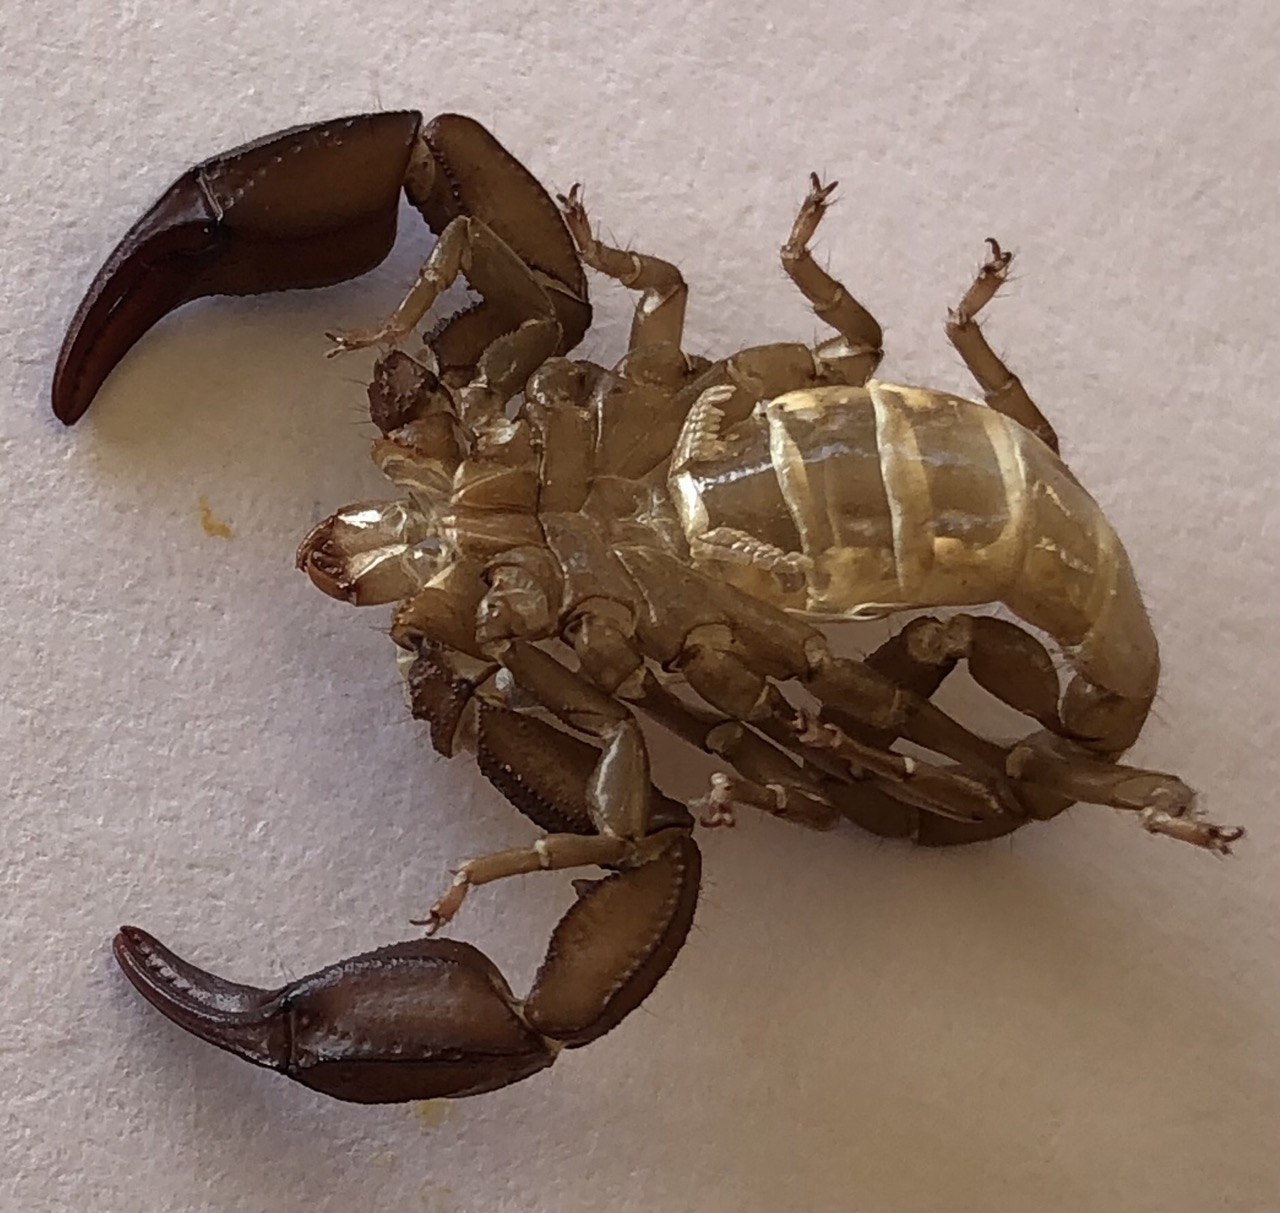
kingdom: Animalia
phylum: Arthropoda
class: Arachnida
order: Scorpiones
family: Euscorpiidae
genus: Euscorpius
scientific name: Euscorpius italicus
